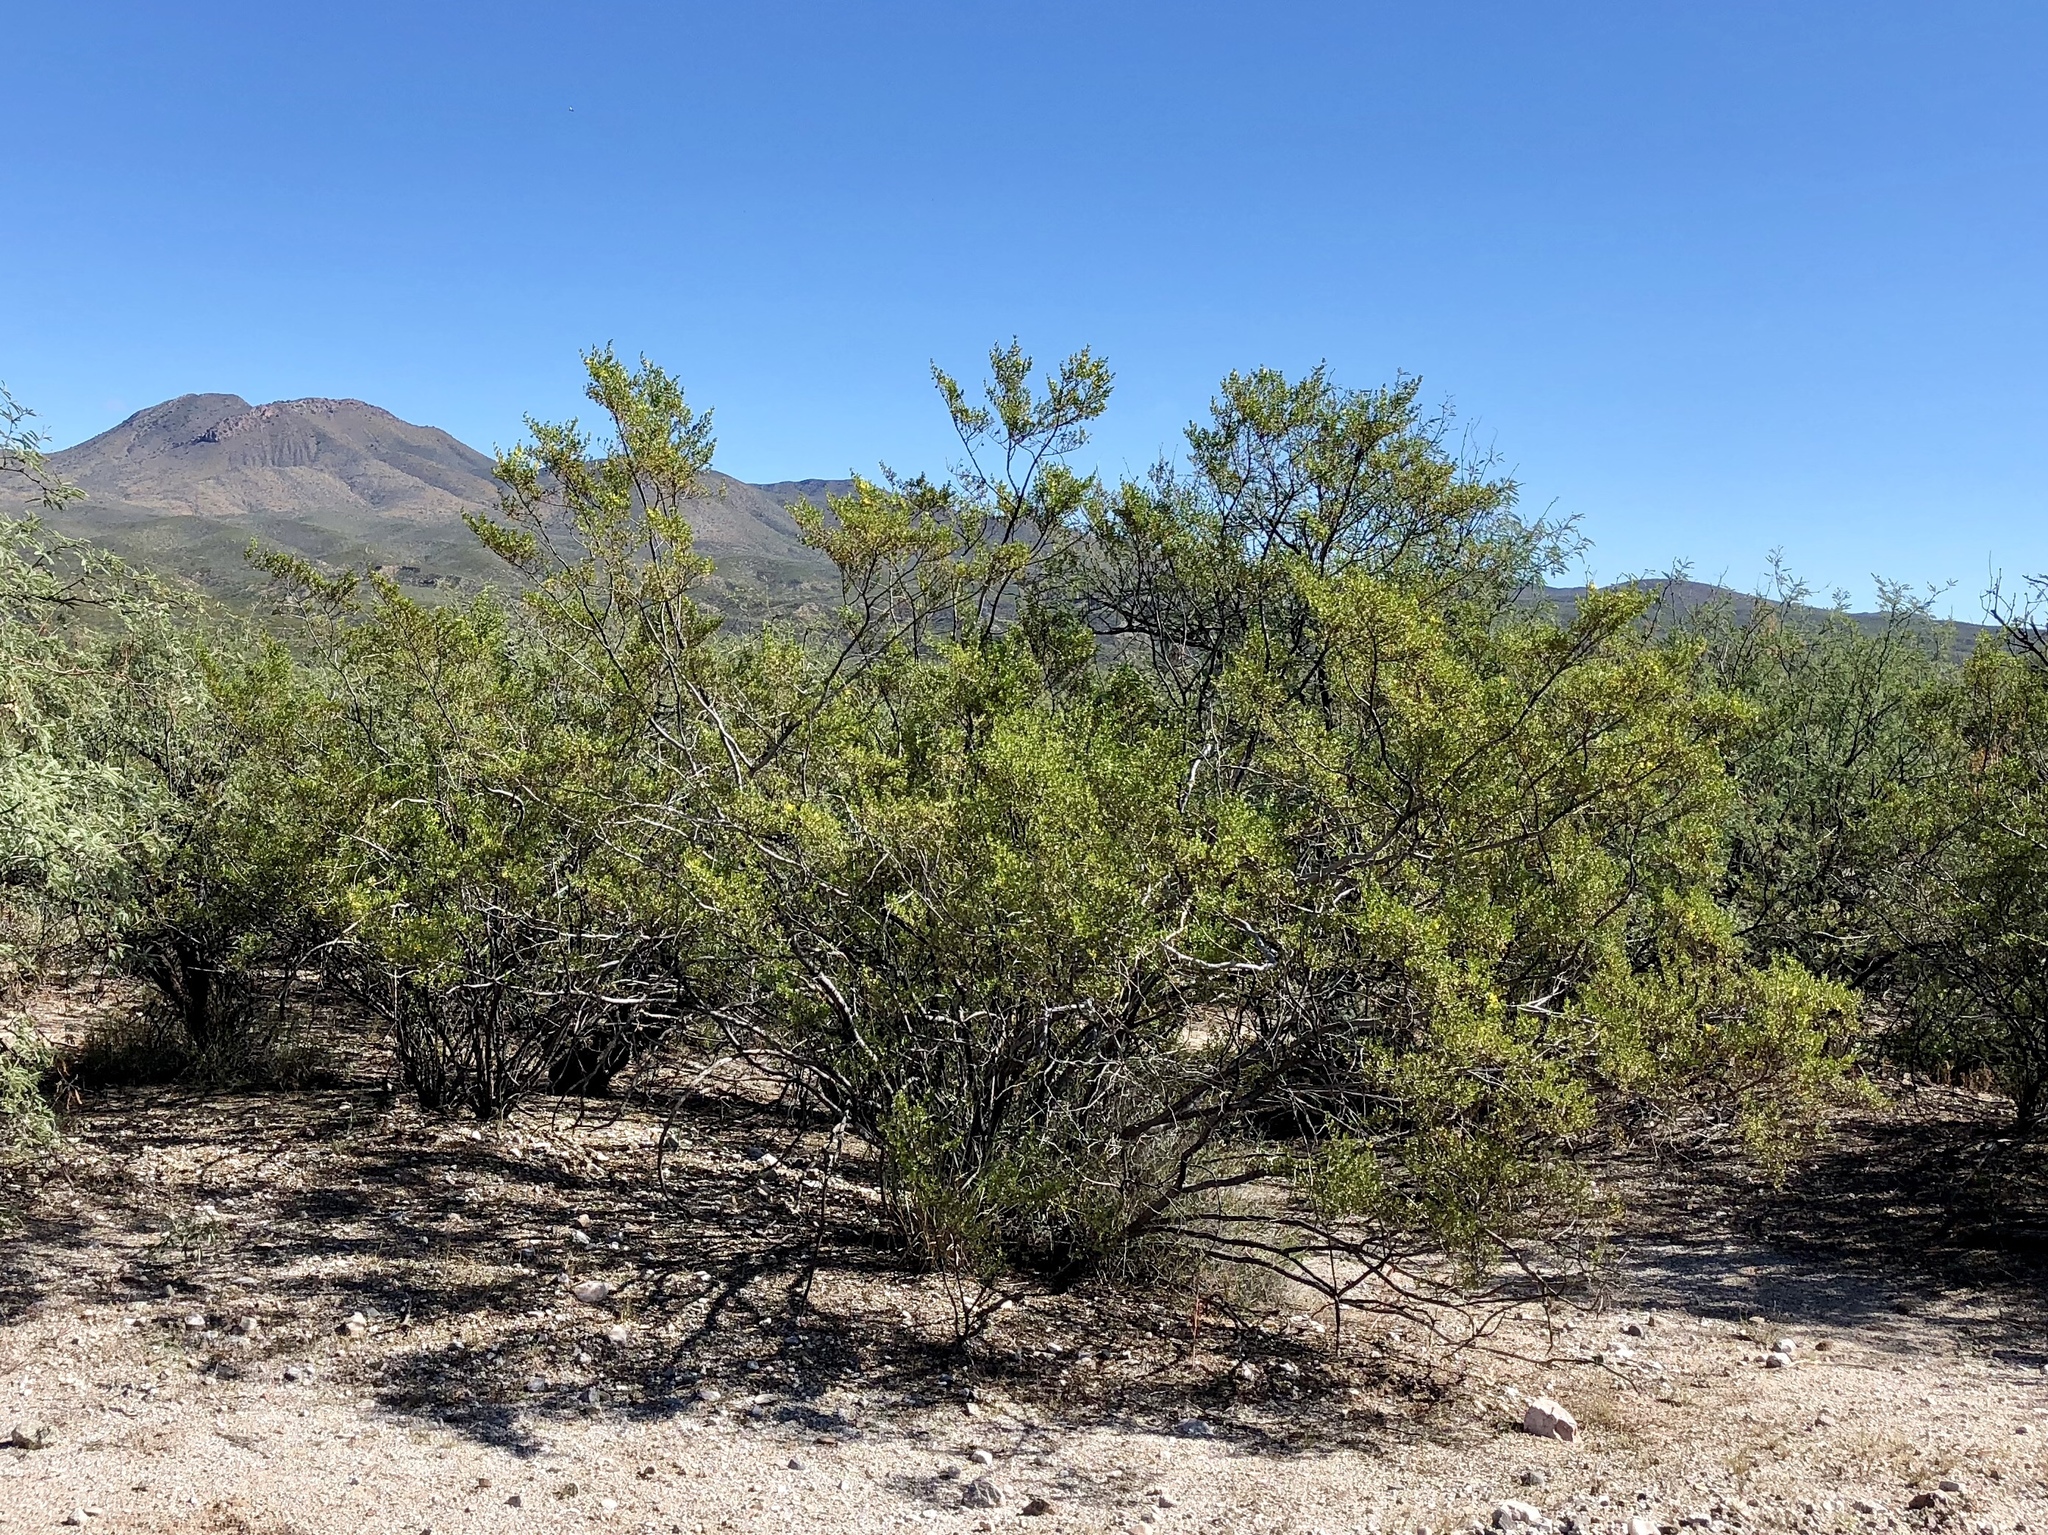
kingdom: Plantae
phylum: Tracheophyta
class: Magnoliopsida
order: Zygophyllales
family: Zygophyllaceae
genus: Larrea
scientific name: Larrea tridentata
